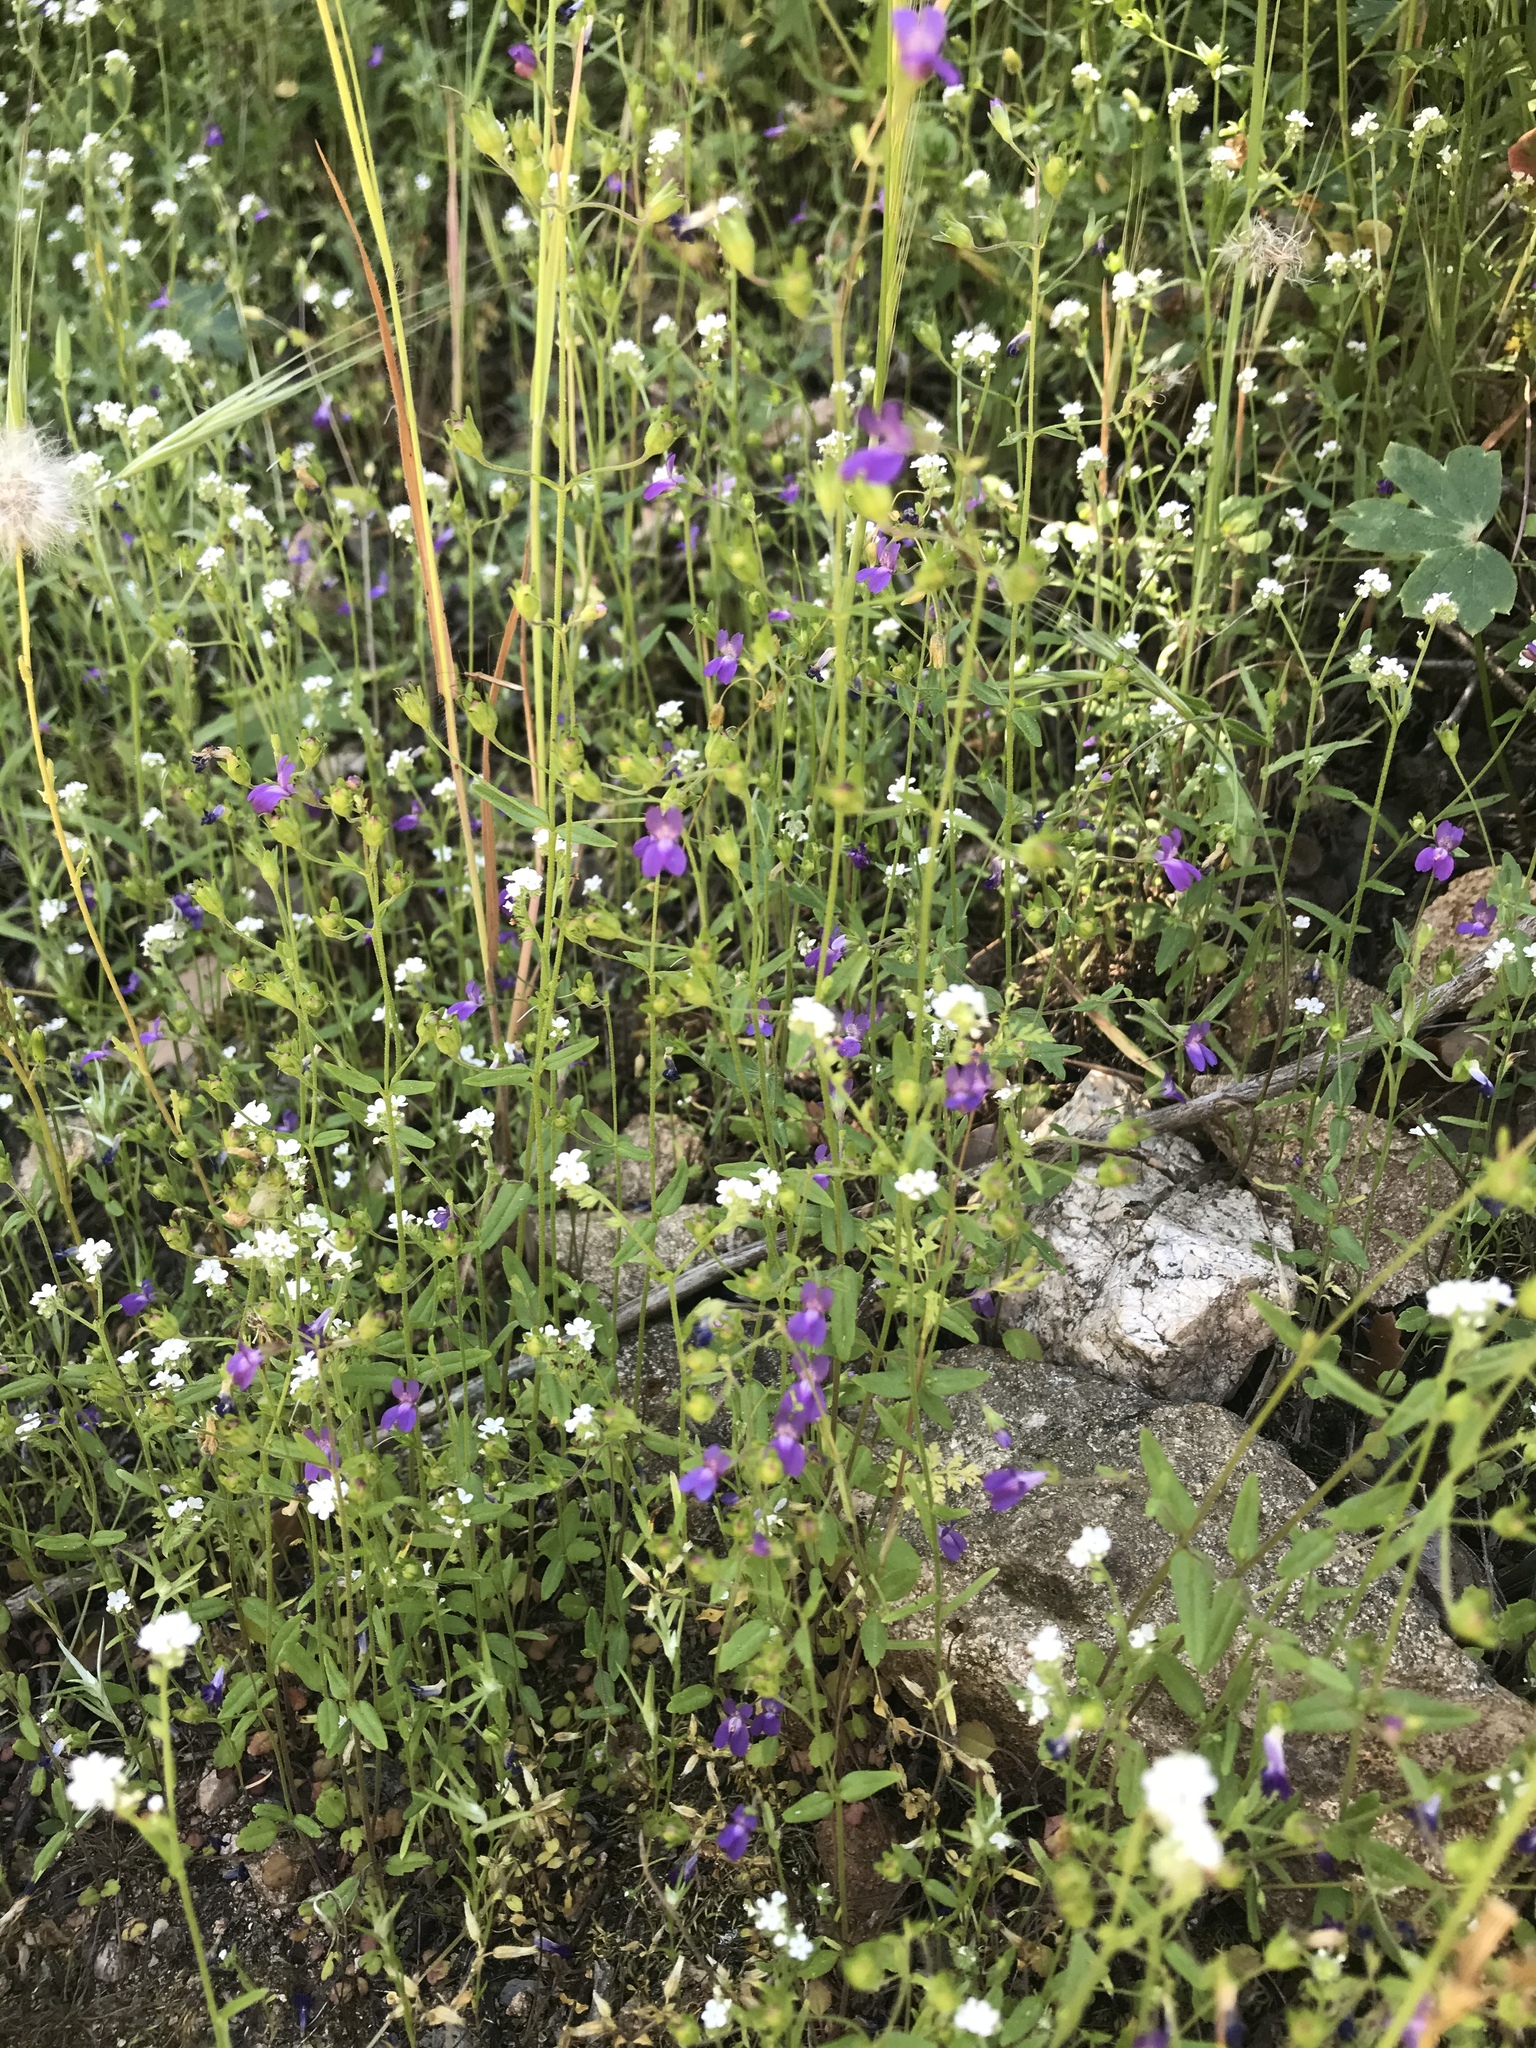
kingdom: Plantae
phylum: Tracheophyta
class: Magnoliopsida
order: Lamiales
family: Plantaginaceae
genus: Collinsia
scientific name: Collinsia parryi
